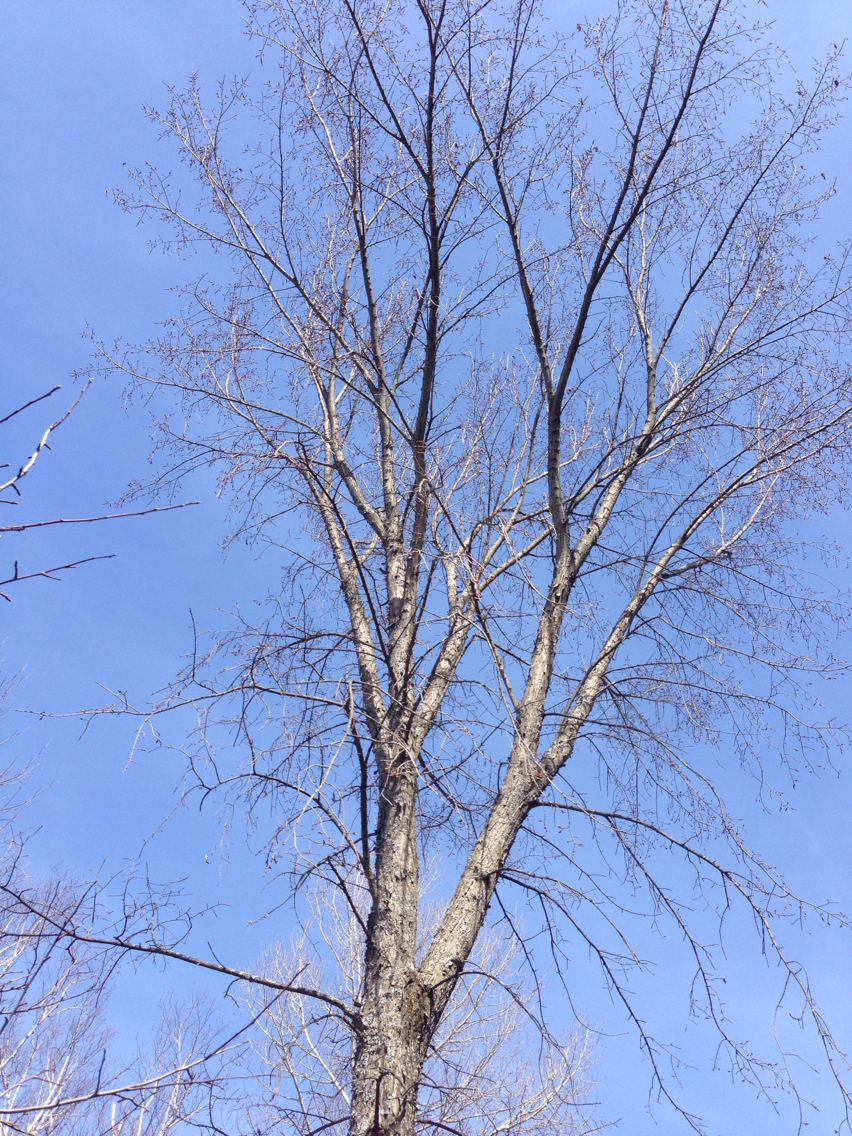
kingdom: Plantae
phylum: Tracheophyta
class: Magnoliopsida
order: Rosales
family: Ulmaceae
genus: Ulmus
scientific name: Ulmus americana
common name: American elm
